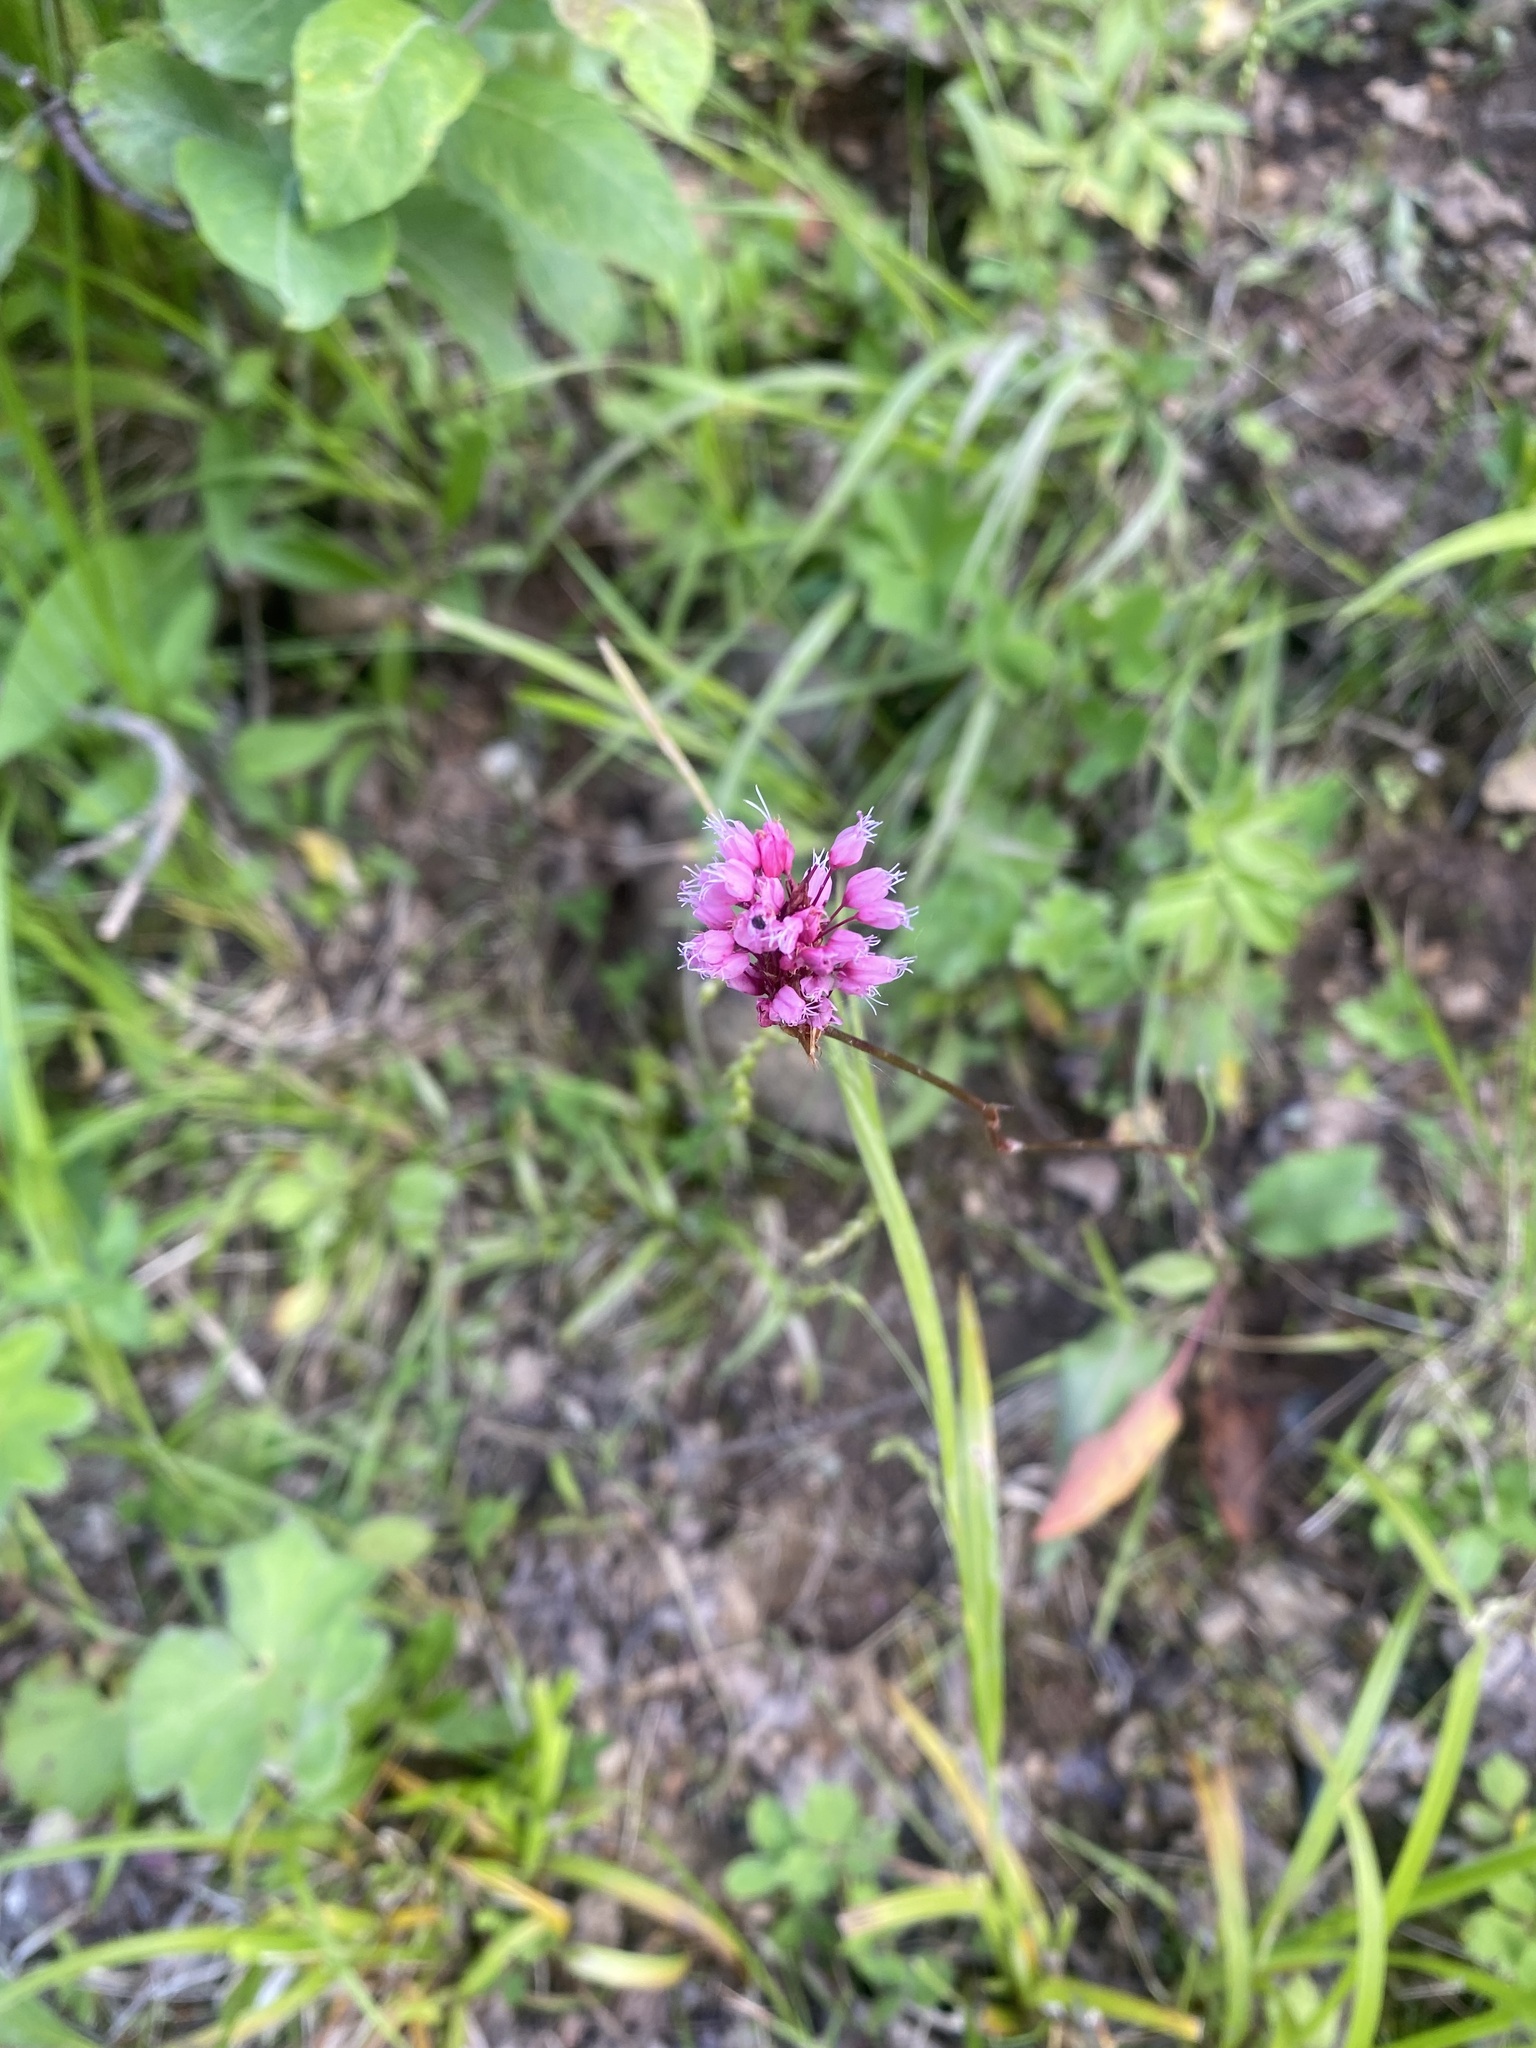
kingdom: Plantae
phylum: Tracheophyta
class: Magnoliopsida
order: Caryophyllales
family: Polygonaceae
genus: Bistorta
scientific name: Bistorta carnea
